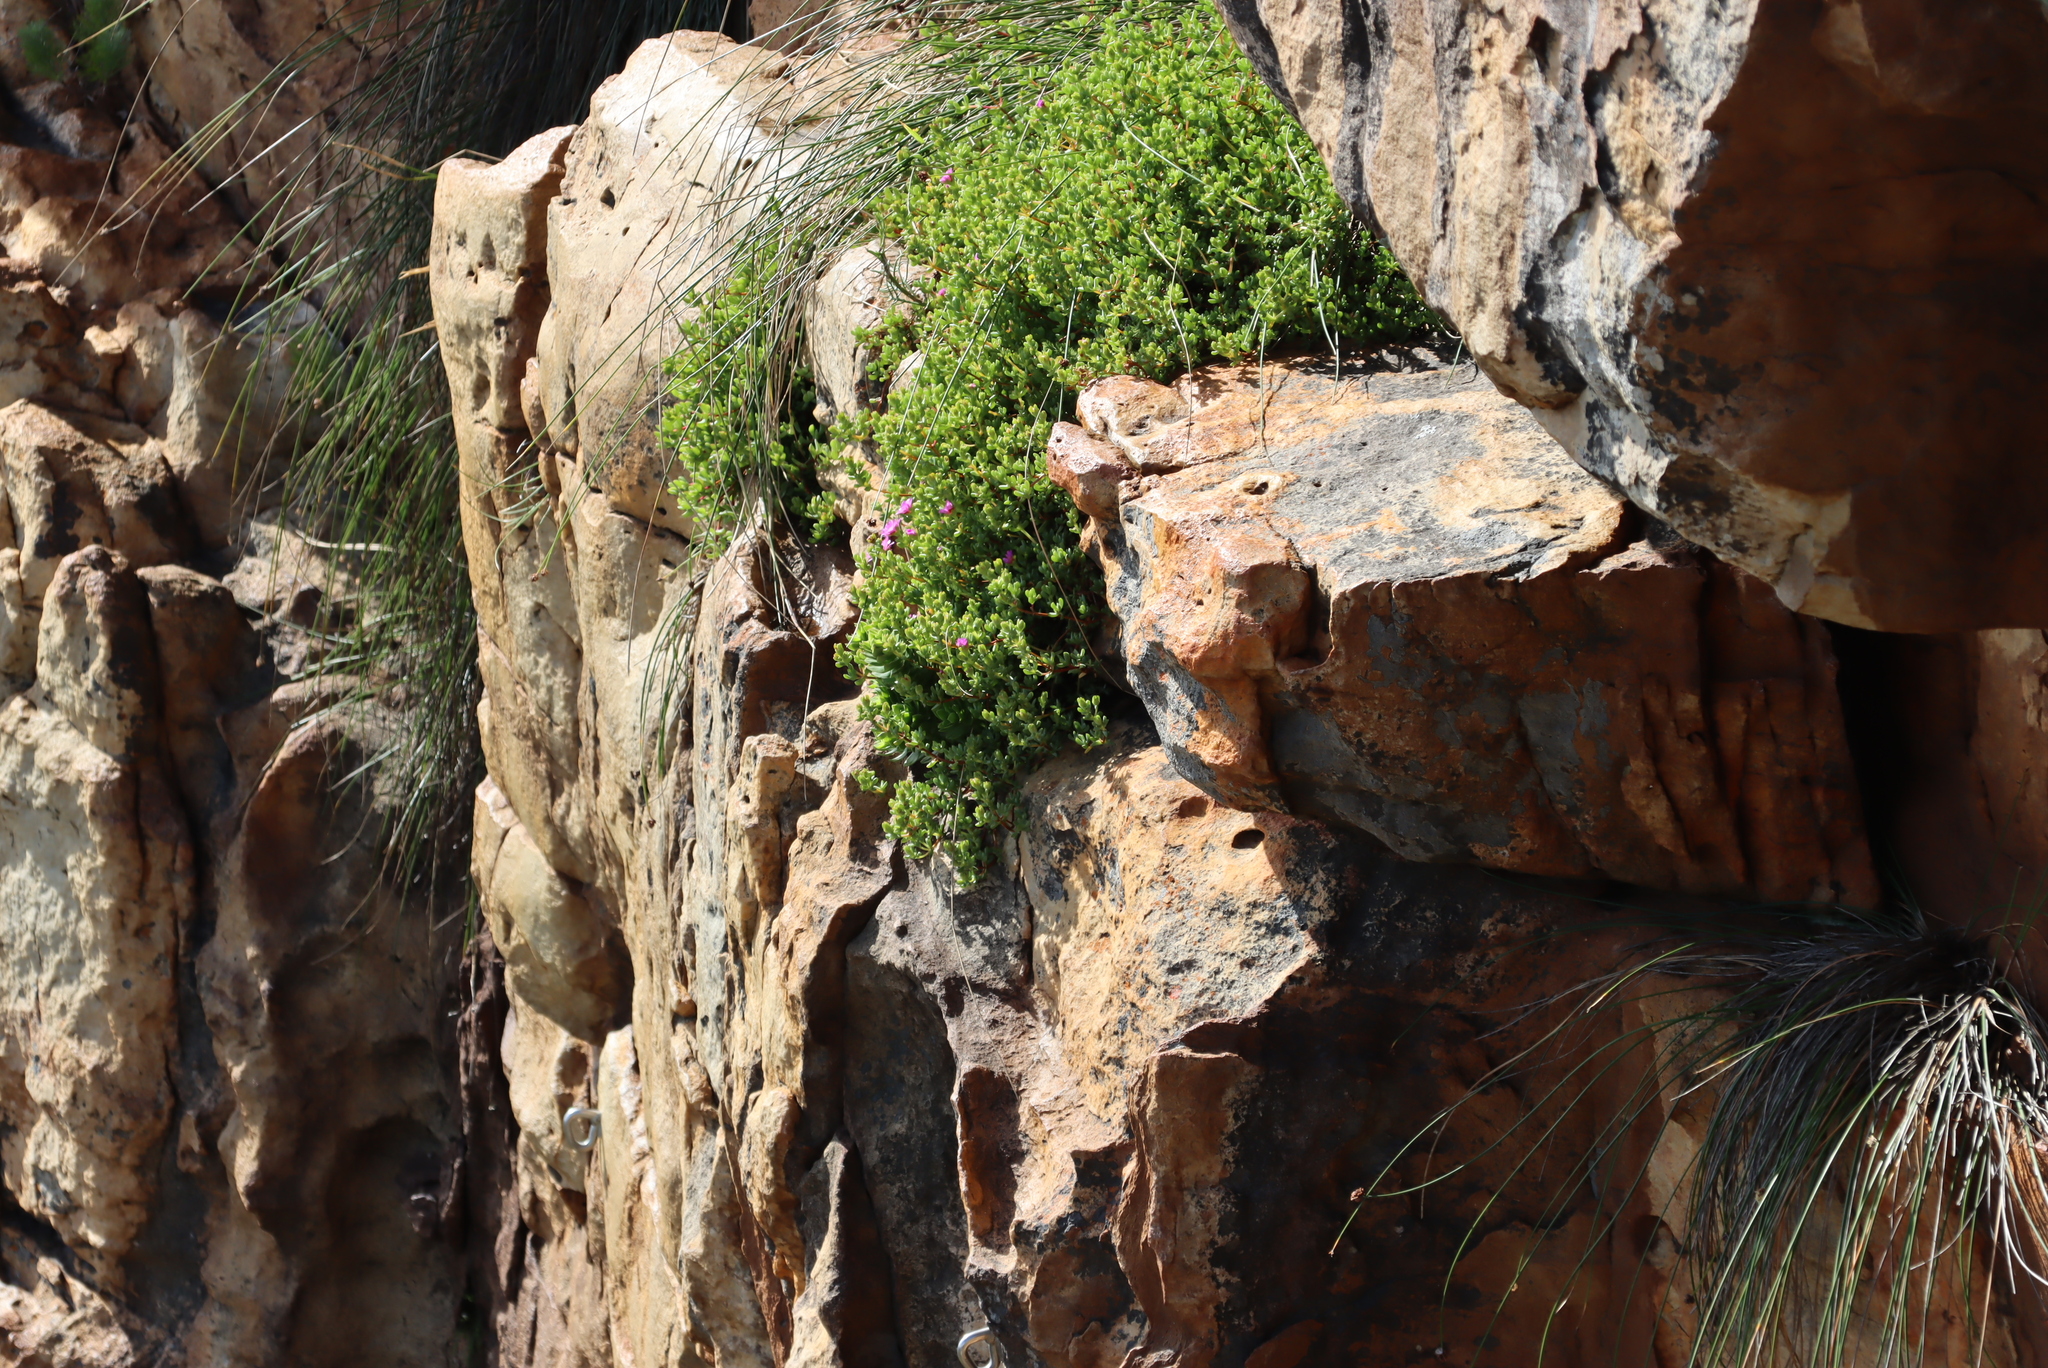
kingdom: Plantae
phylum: Tracheophyta
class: Magnoliopsida
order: Caryophyllales
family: Aizoaceae
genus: Oscularia
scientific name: Oscularia falciformis
